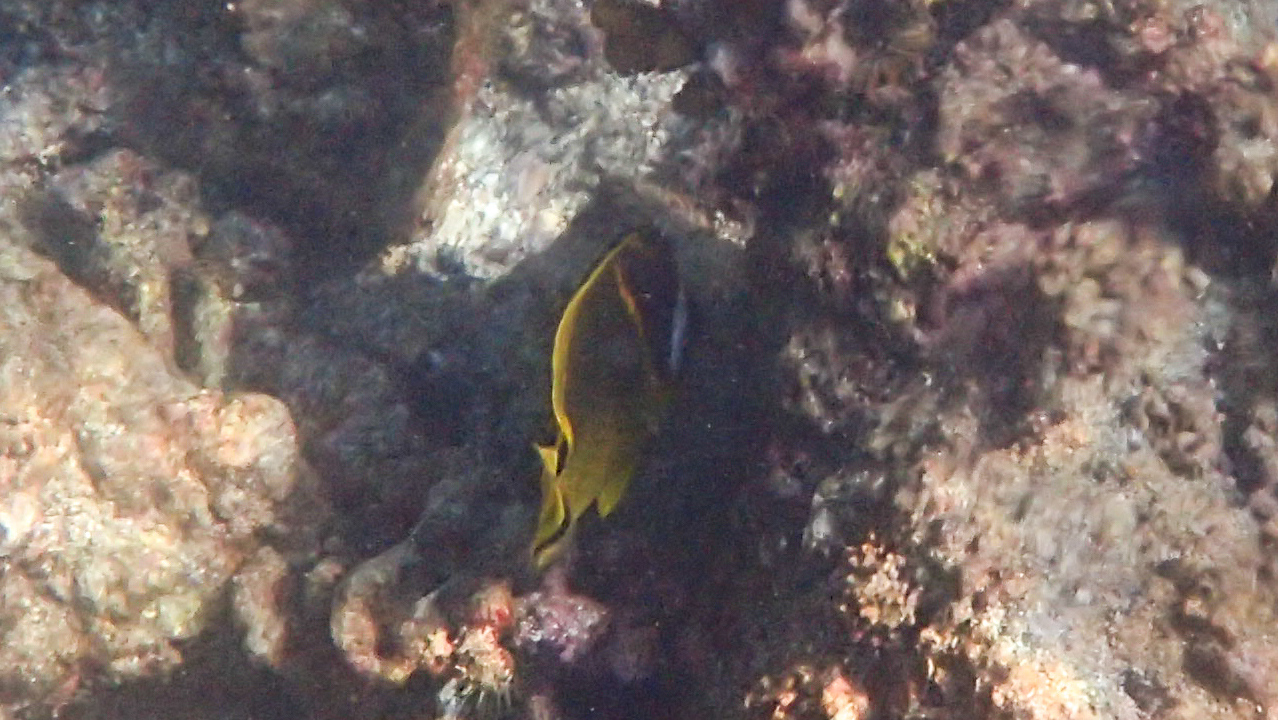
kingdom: Animalia
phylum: Chordata
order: Perciformes
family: Chaetodontidae
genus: Chaetodon
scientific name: Chaetodon lunula
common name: Raccoon butterflyfish
